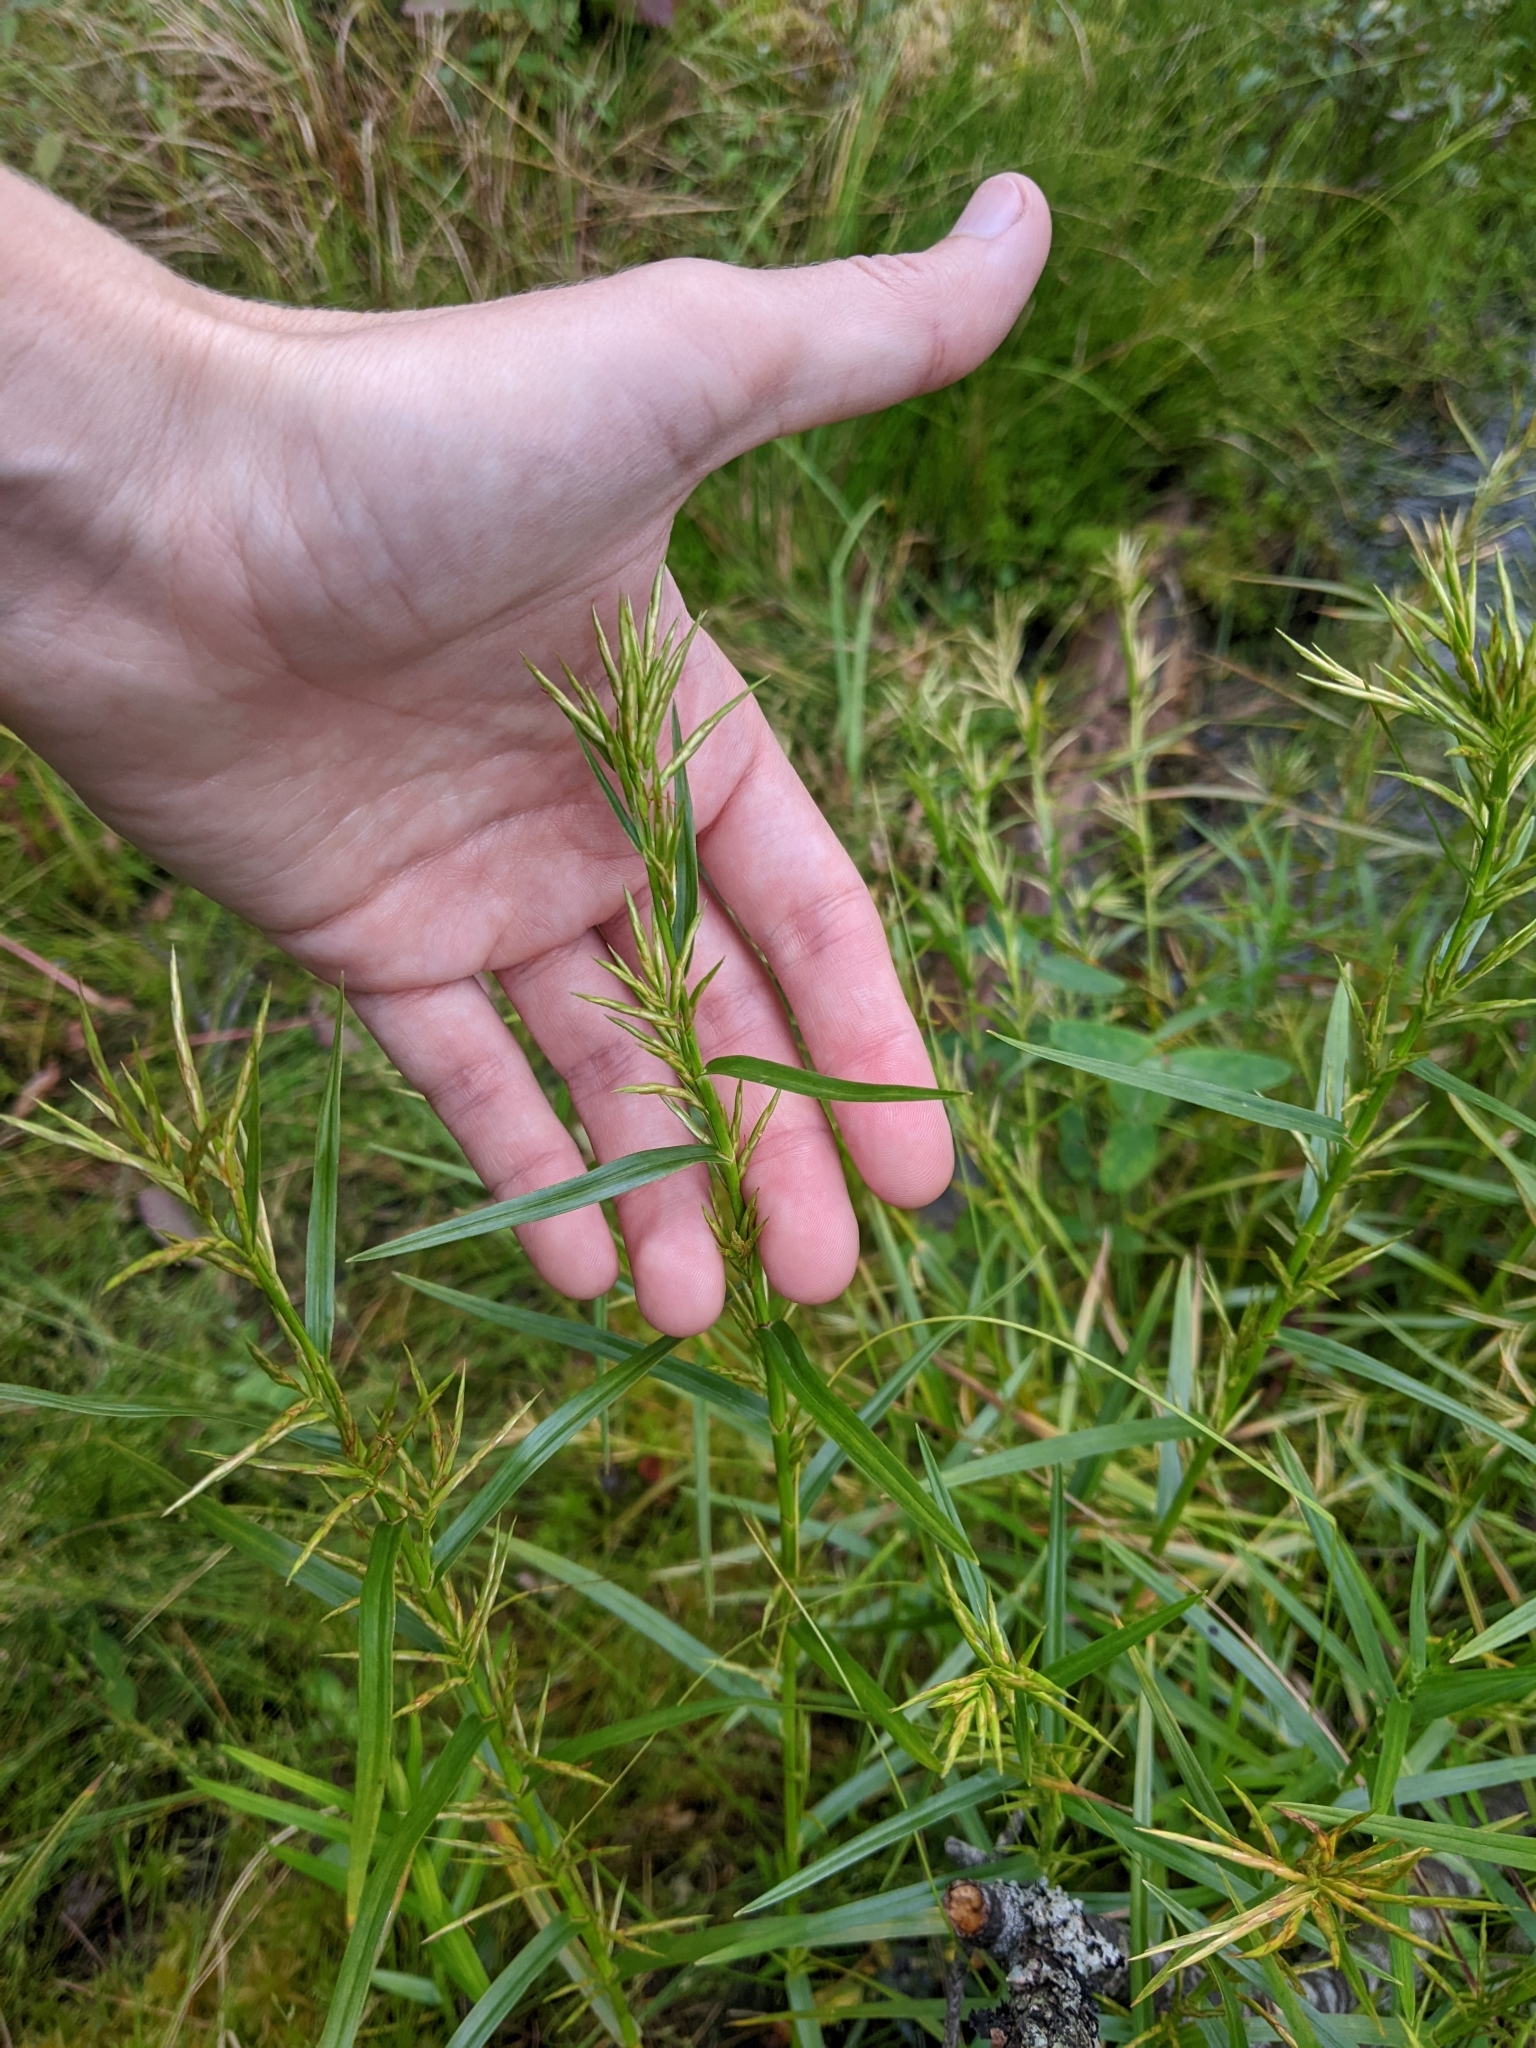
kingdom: Plantae
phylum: Tracheophyta
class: Liliopsida
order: Poales
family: Cyperaceae
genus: Dulichium
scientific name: Dulichium arundinaceum
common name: Three-way sedge
